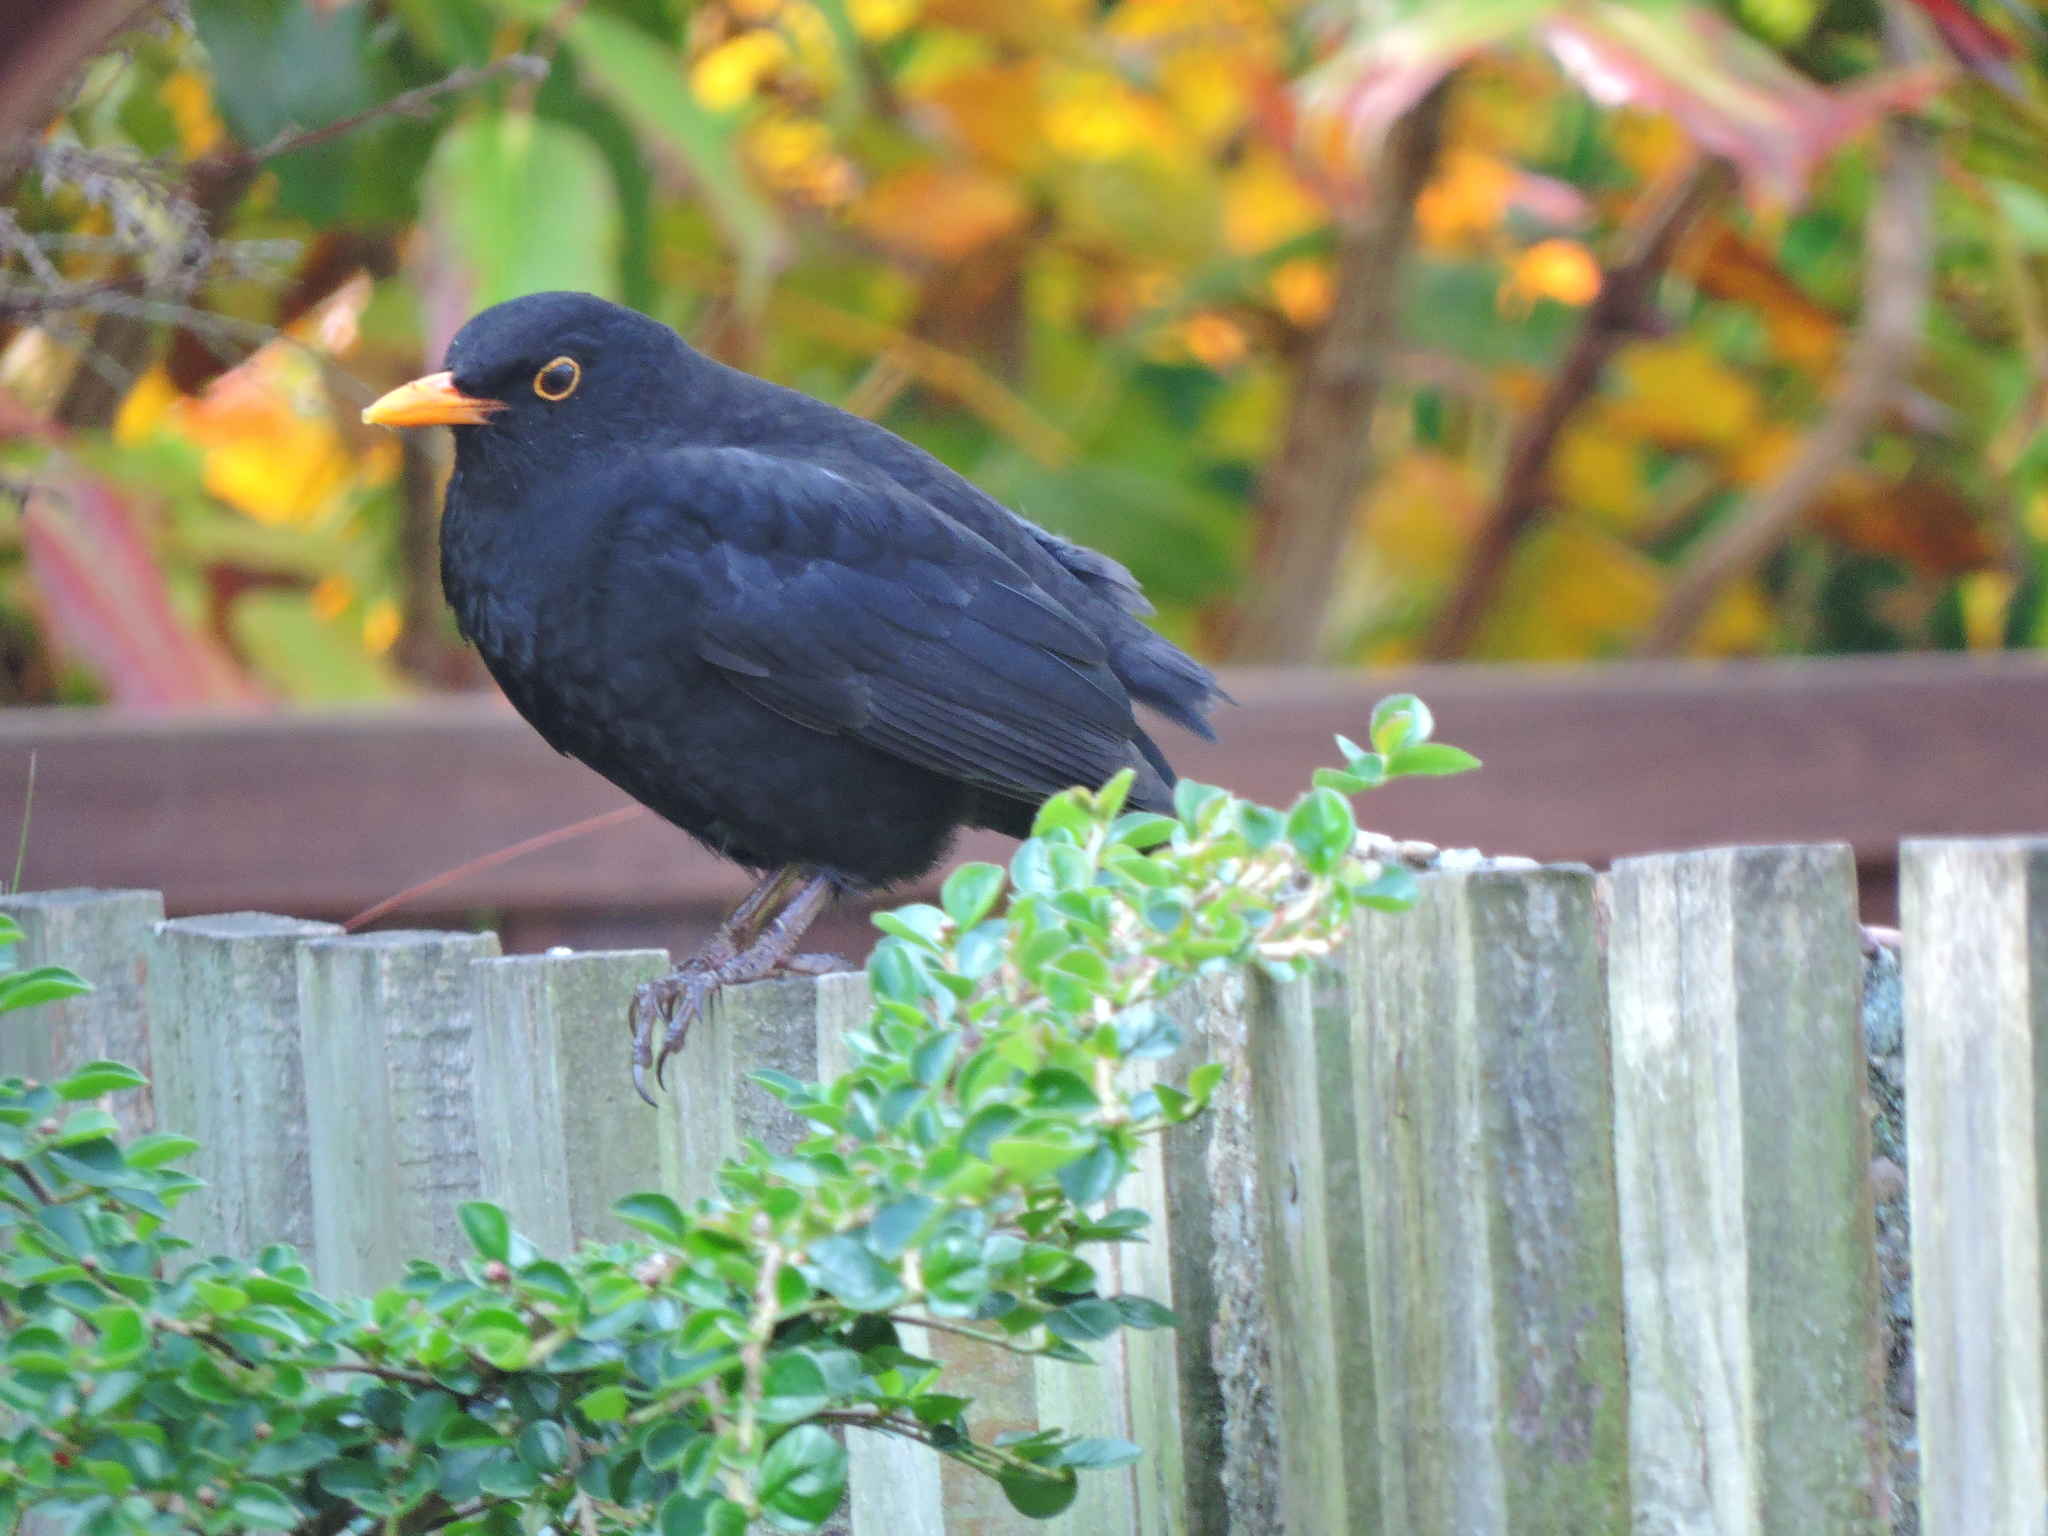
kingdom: Animalia
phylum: Chordata
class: Aves
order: Passeriformes
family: Turdidae
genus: Turdus
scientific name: Turdus merula
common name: Common blackbird
